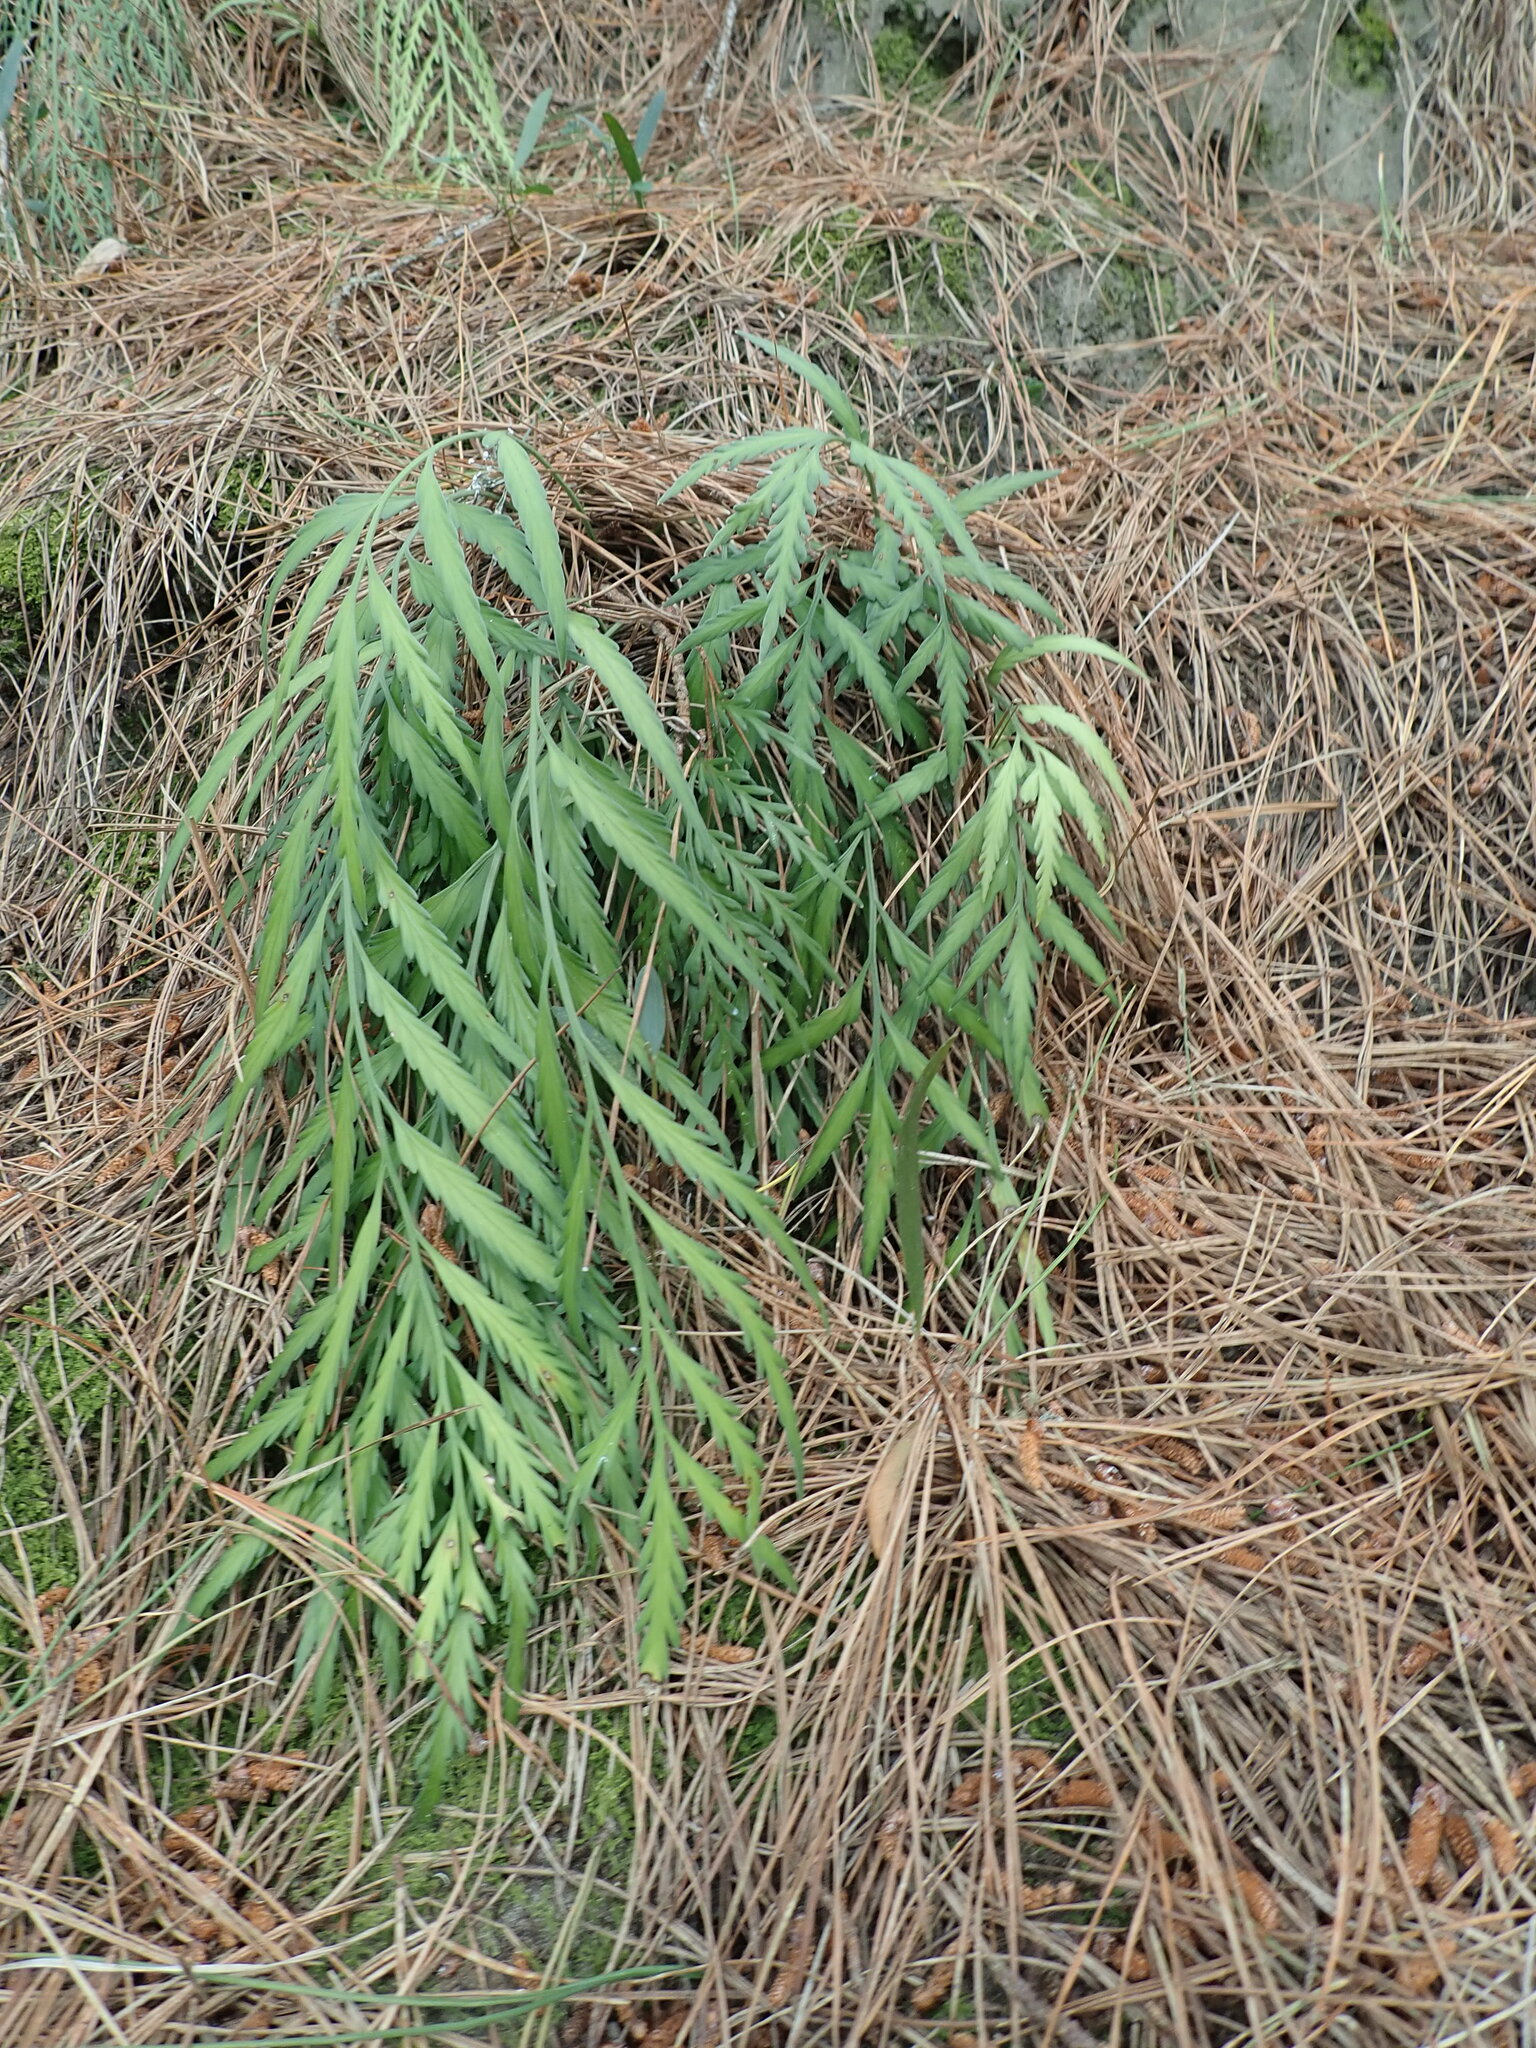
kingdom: Plantae
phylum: Tracheophyta
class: Polypodiopsida
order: Polypodiales
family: Aspleniaceae
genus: Asplenium
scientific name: Asplenium flaccidum
